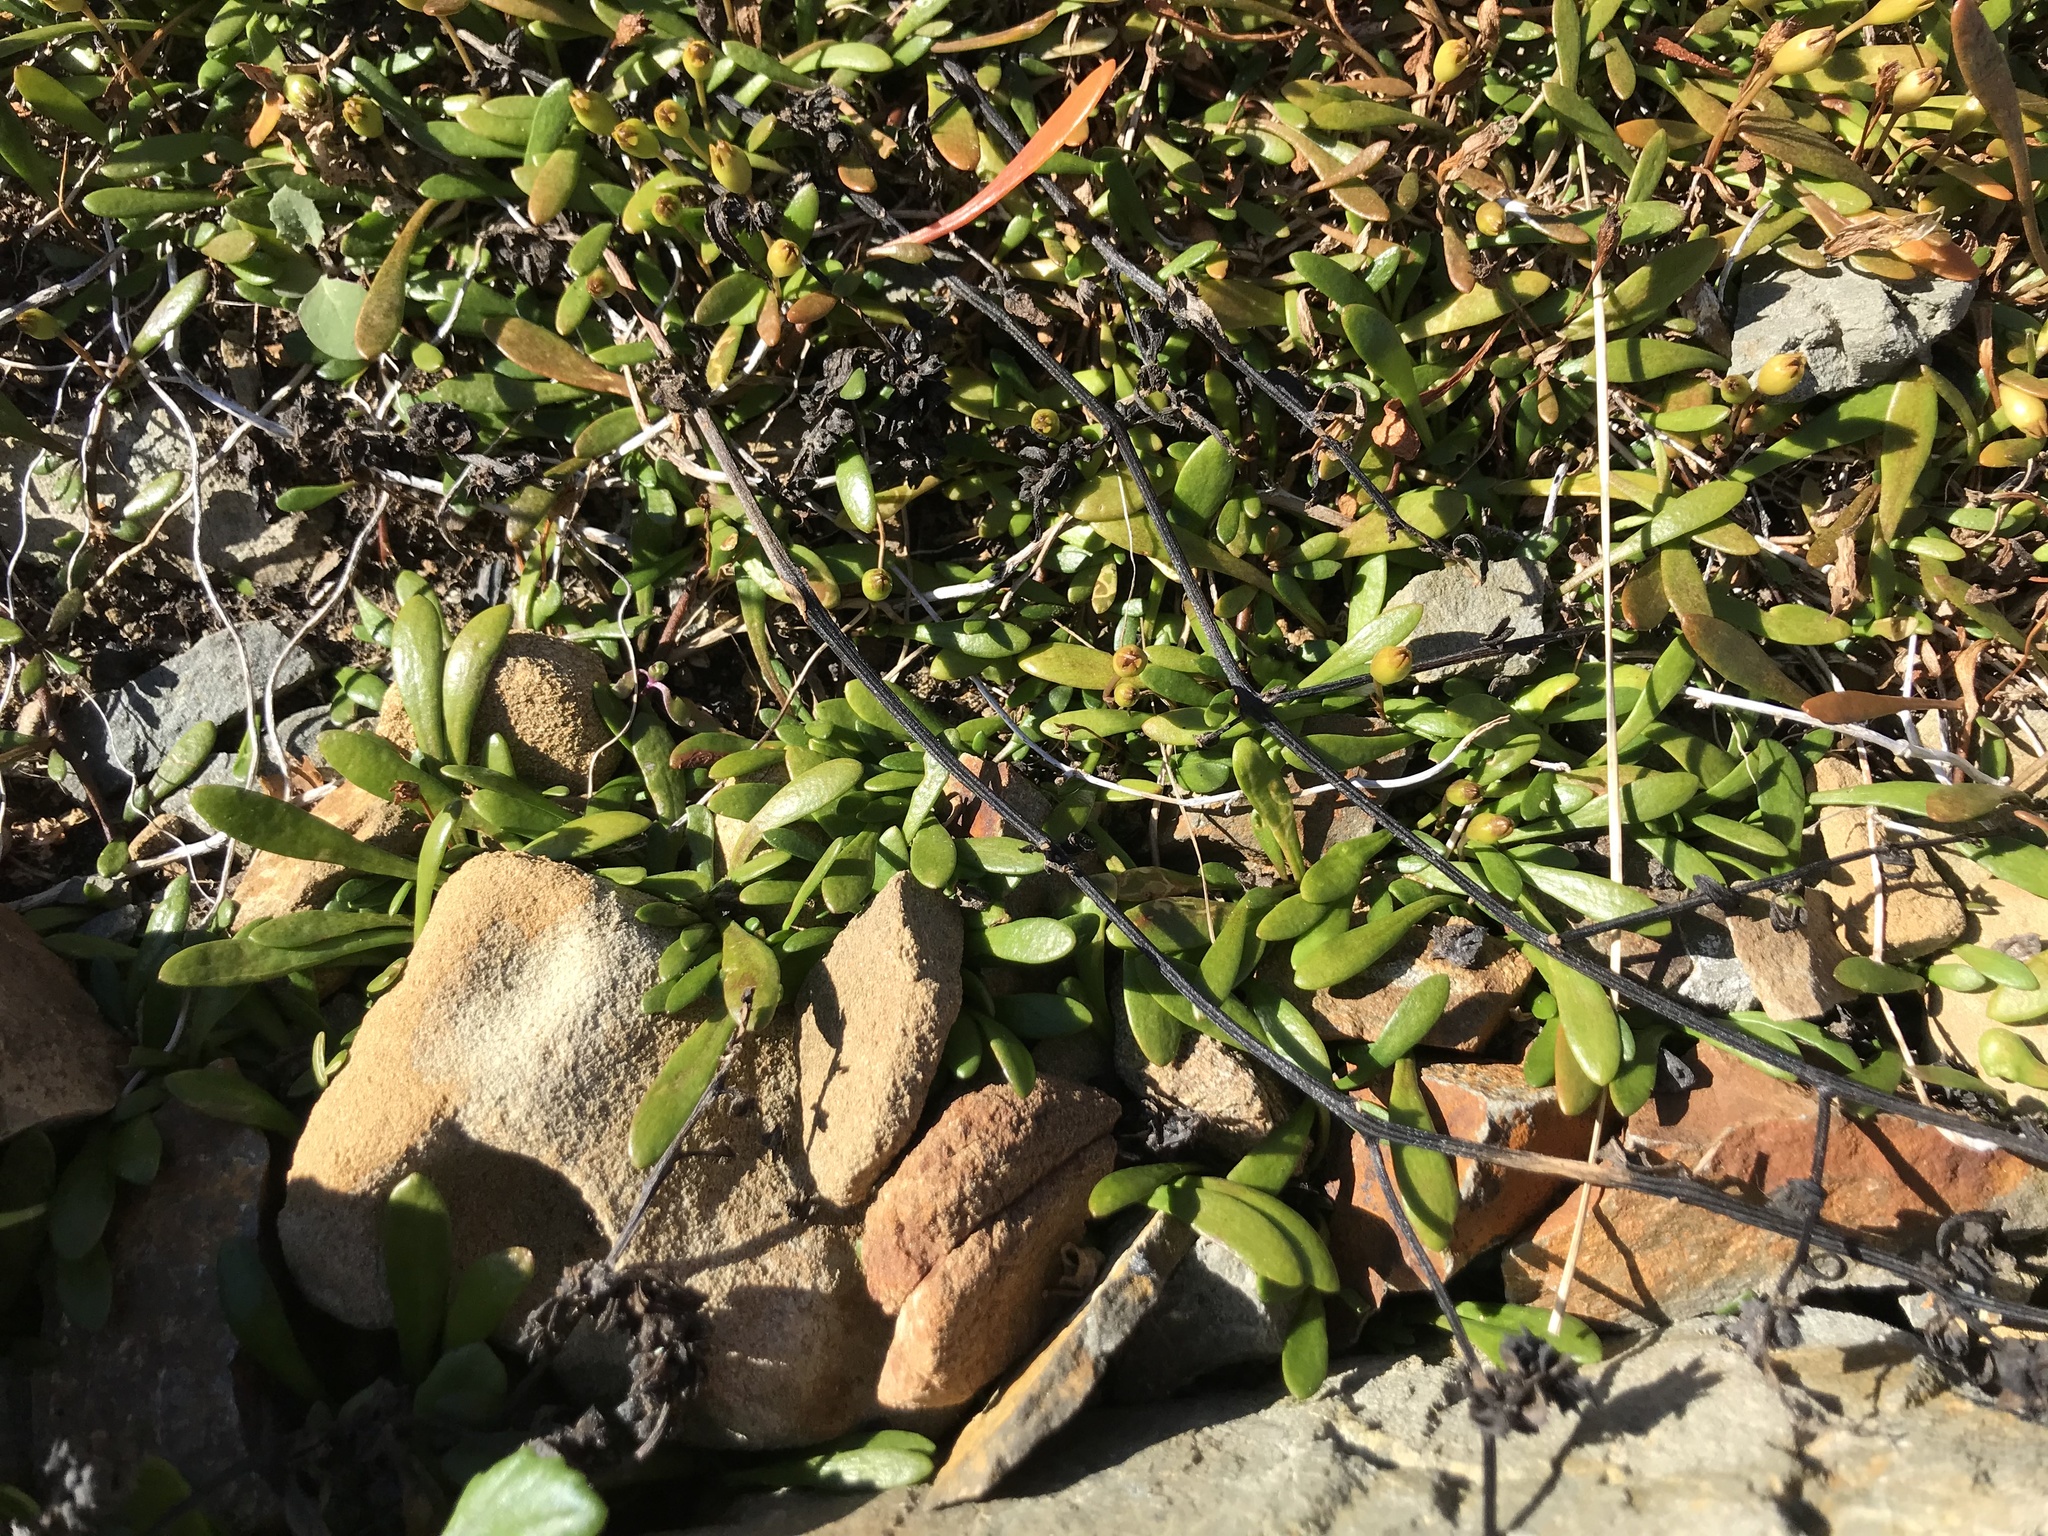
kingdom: Plantae
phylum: Tracheophyta
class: Magnoliopsida
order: Asterales
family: Goodeniaceae
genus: Goodenia
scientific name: Goodenia radicans
